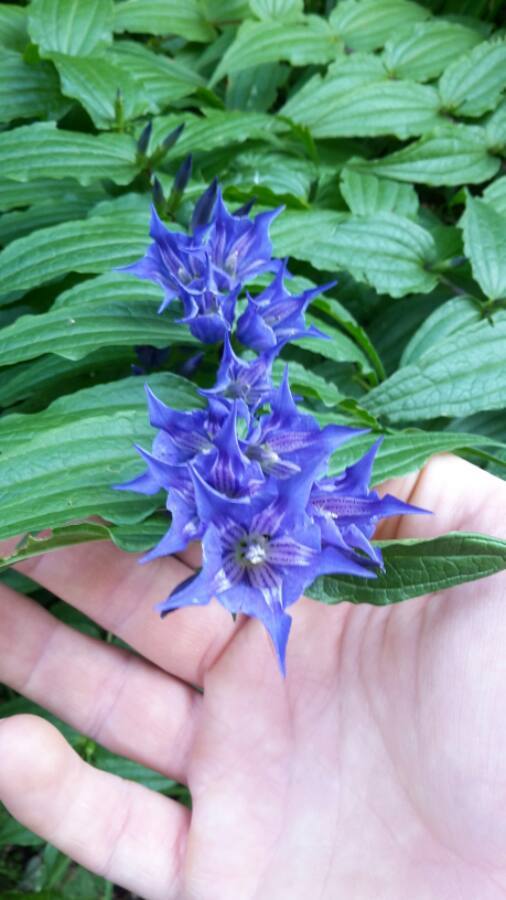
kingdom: Plantae
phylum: Tracheophyta
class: Magnoliopsida
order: Gentianales
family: Gentianaceae
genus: Gentiana
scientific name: Gentiana asclepiadea
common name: Willow gentian
